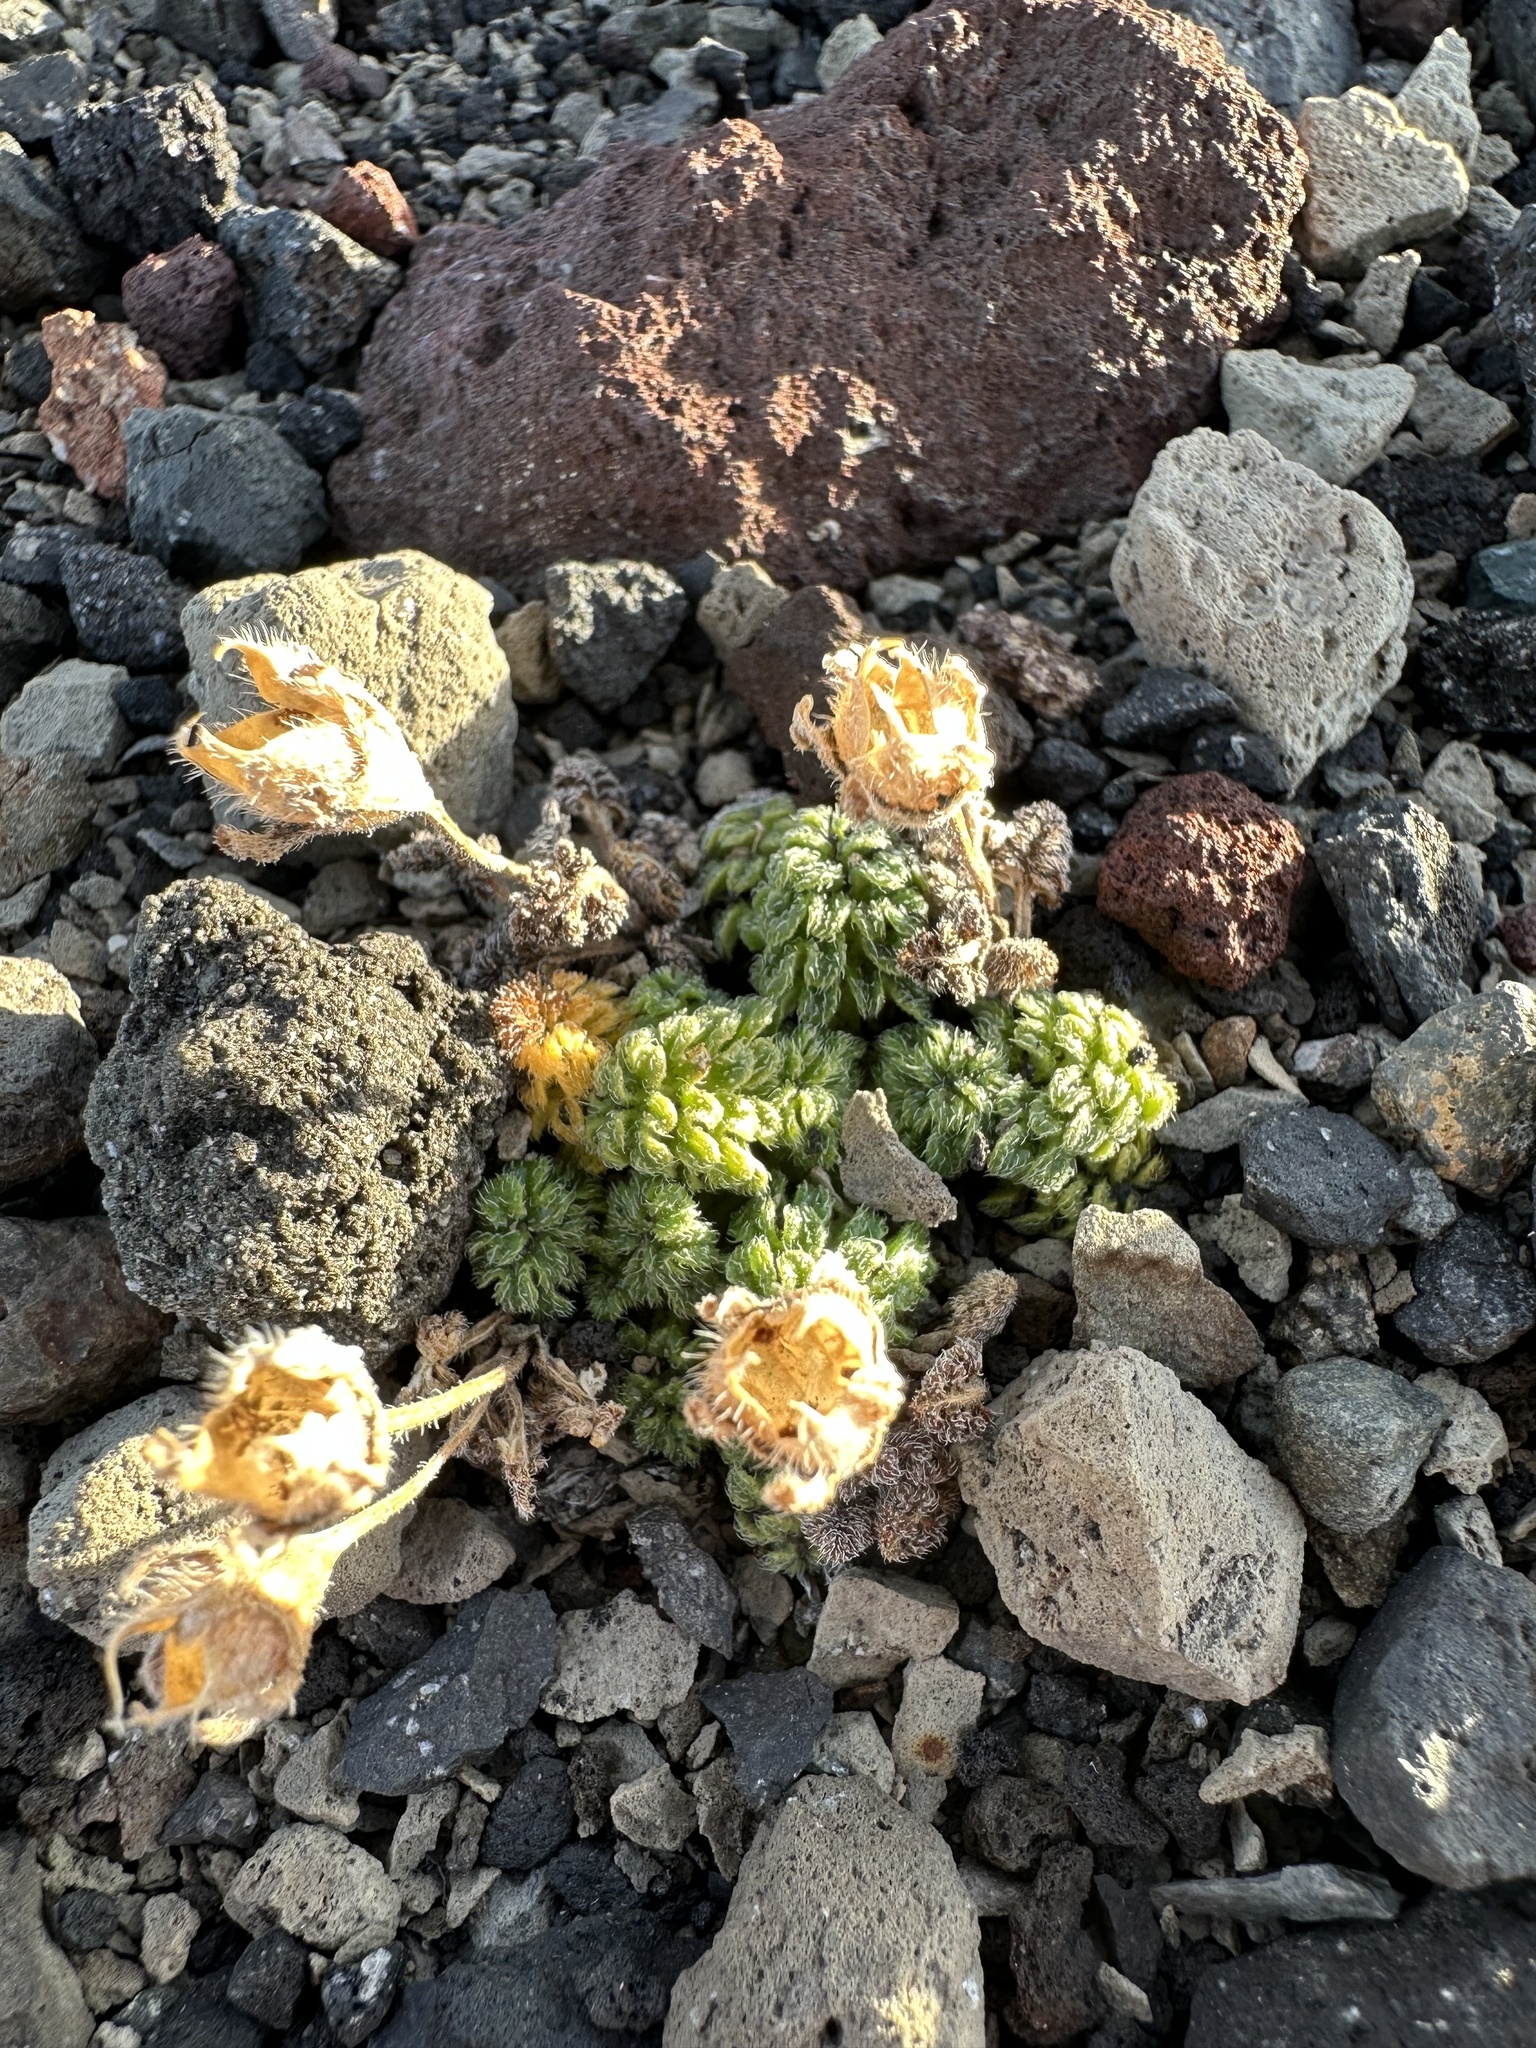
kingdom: Plantae
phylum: Tracheophyta
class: Magnoliopsida
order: Cornales
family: Loasaceae
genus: Pinnasa
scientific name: Pinnasa nana
